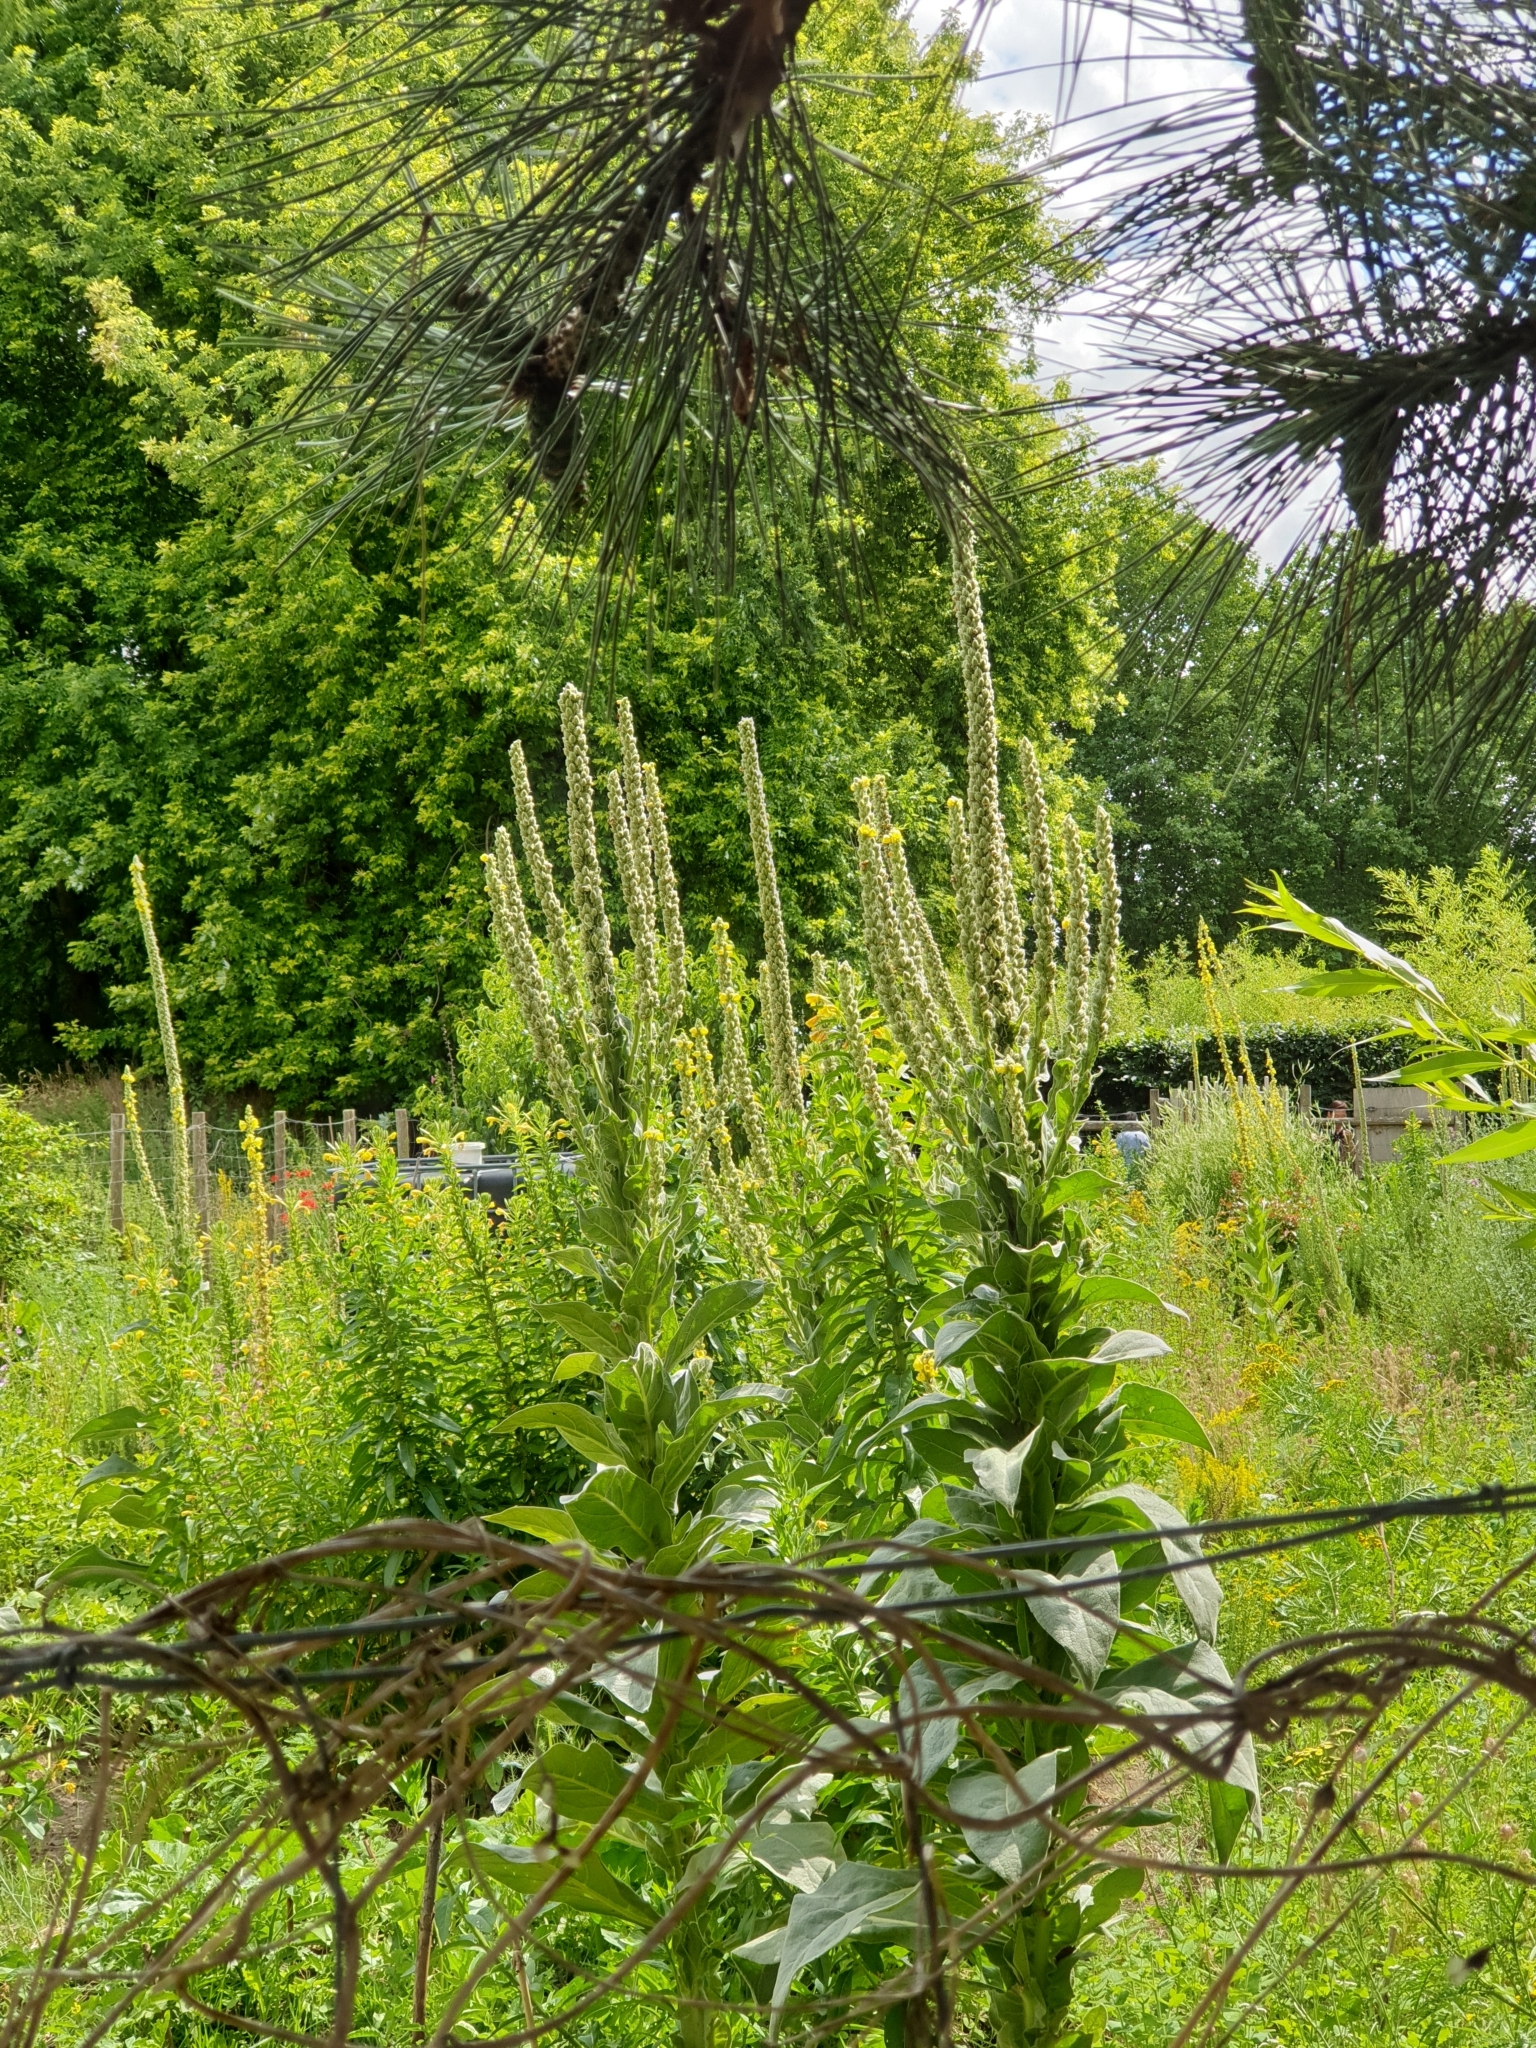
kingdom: Plantae
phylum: Tracheophyta
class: Magnoliopsida
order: Lamiales
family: Scrophulariaceae
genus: Verbascum
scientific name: Verbascum thapsus
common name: Common mullein
